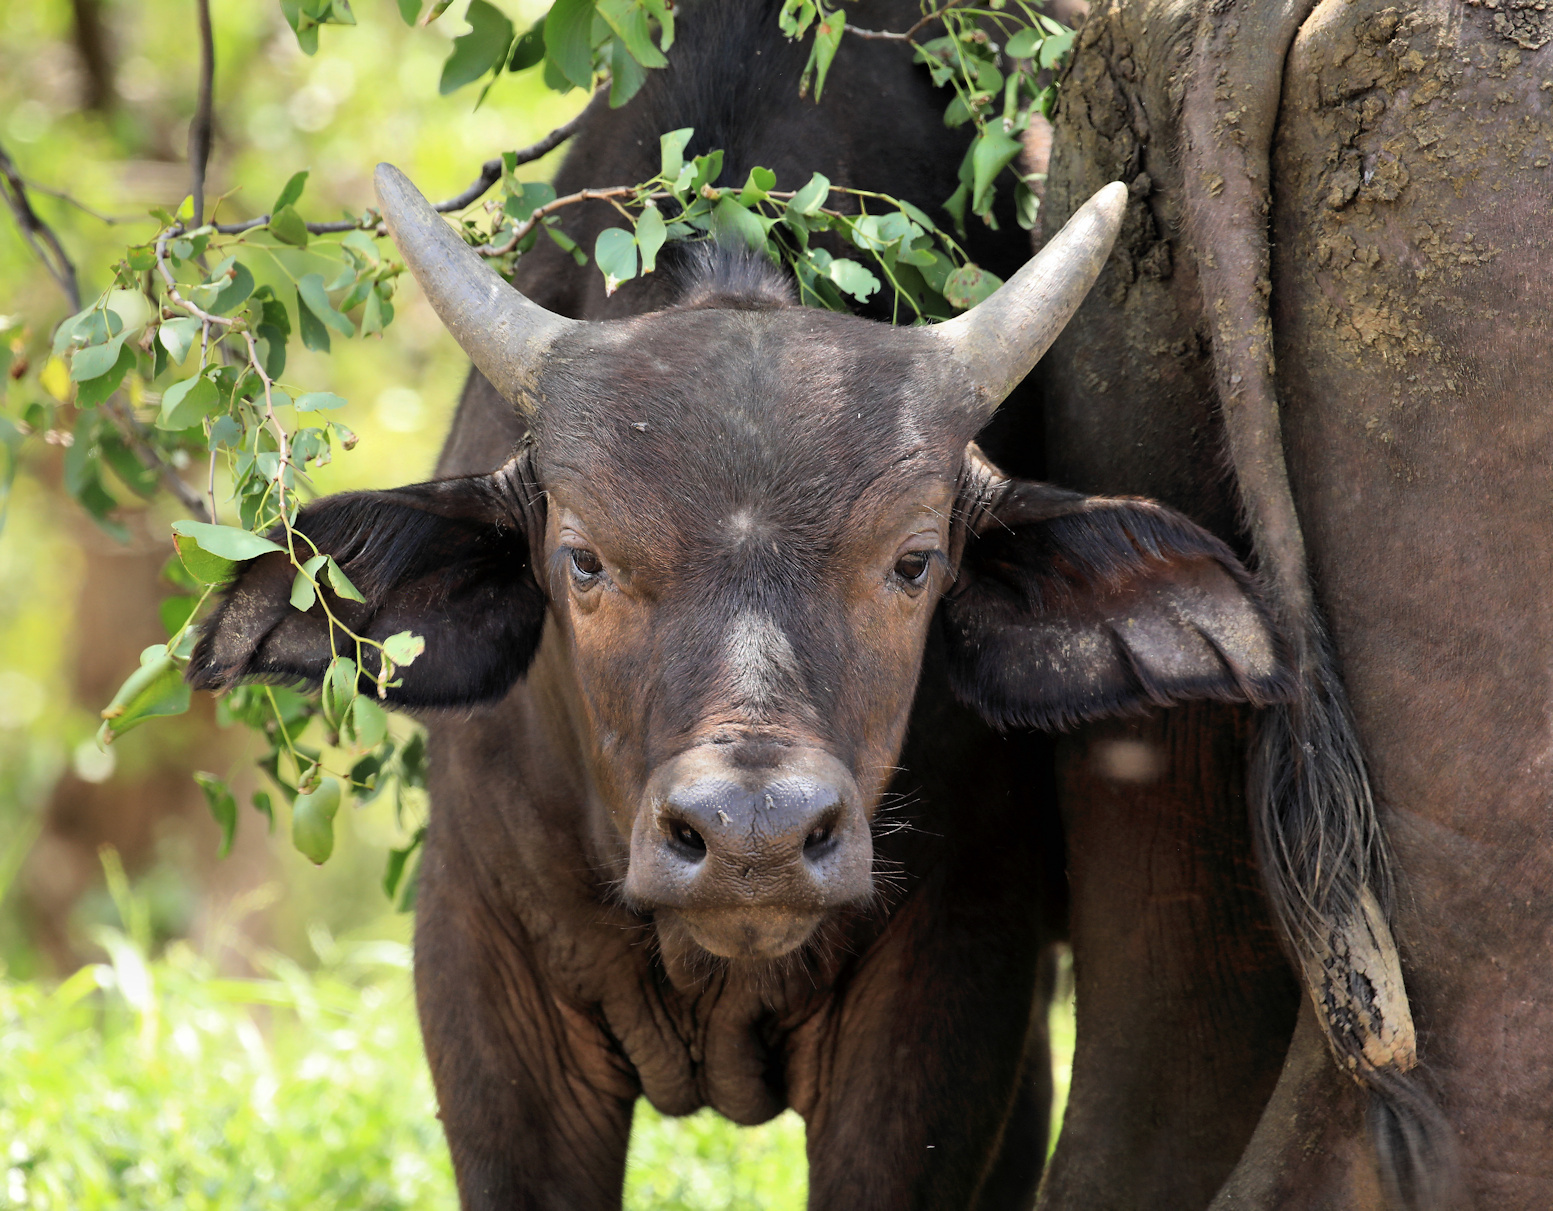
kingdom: Animalia
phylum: Chordata
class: Mammalia
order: Artiodactyla
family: Bovidae
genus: Syncerus
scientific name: Syncerus caffer
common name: African buffalo
